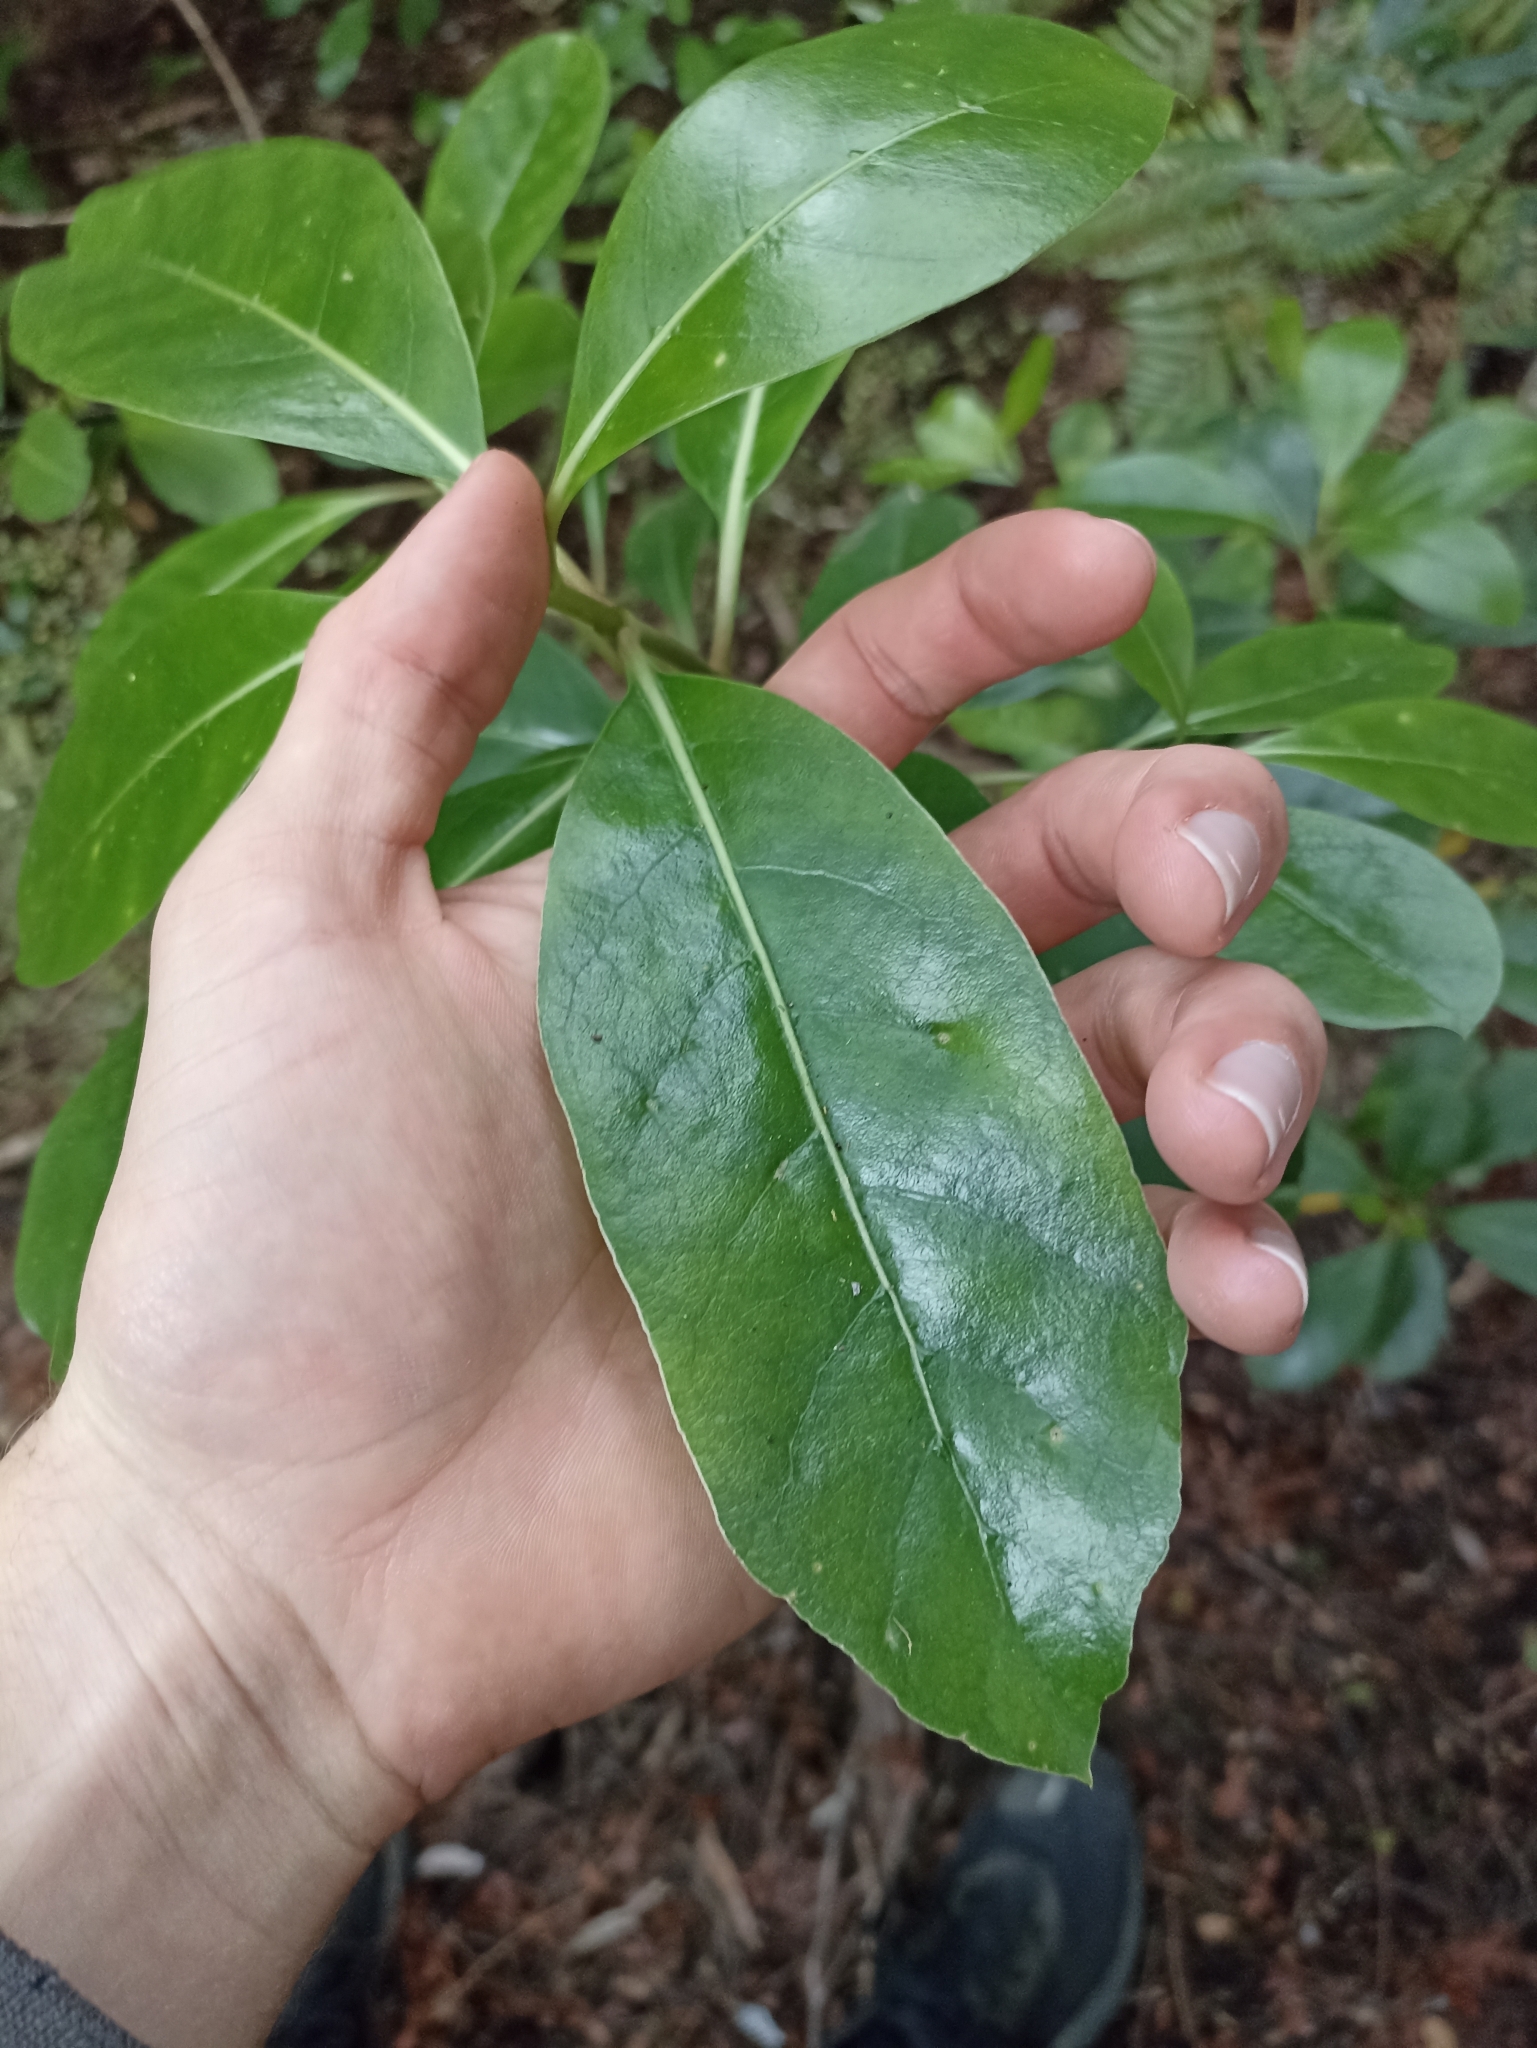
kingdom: Plantae
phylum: Tracheophyta
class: Magnoliopsida
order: Gentianales
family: Rubiaceae
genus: Coprosma
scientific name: Coprosma lucida
